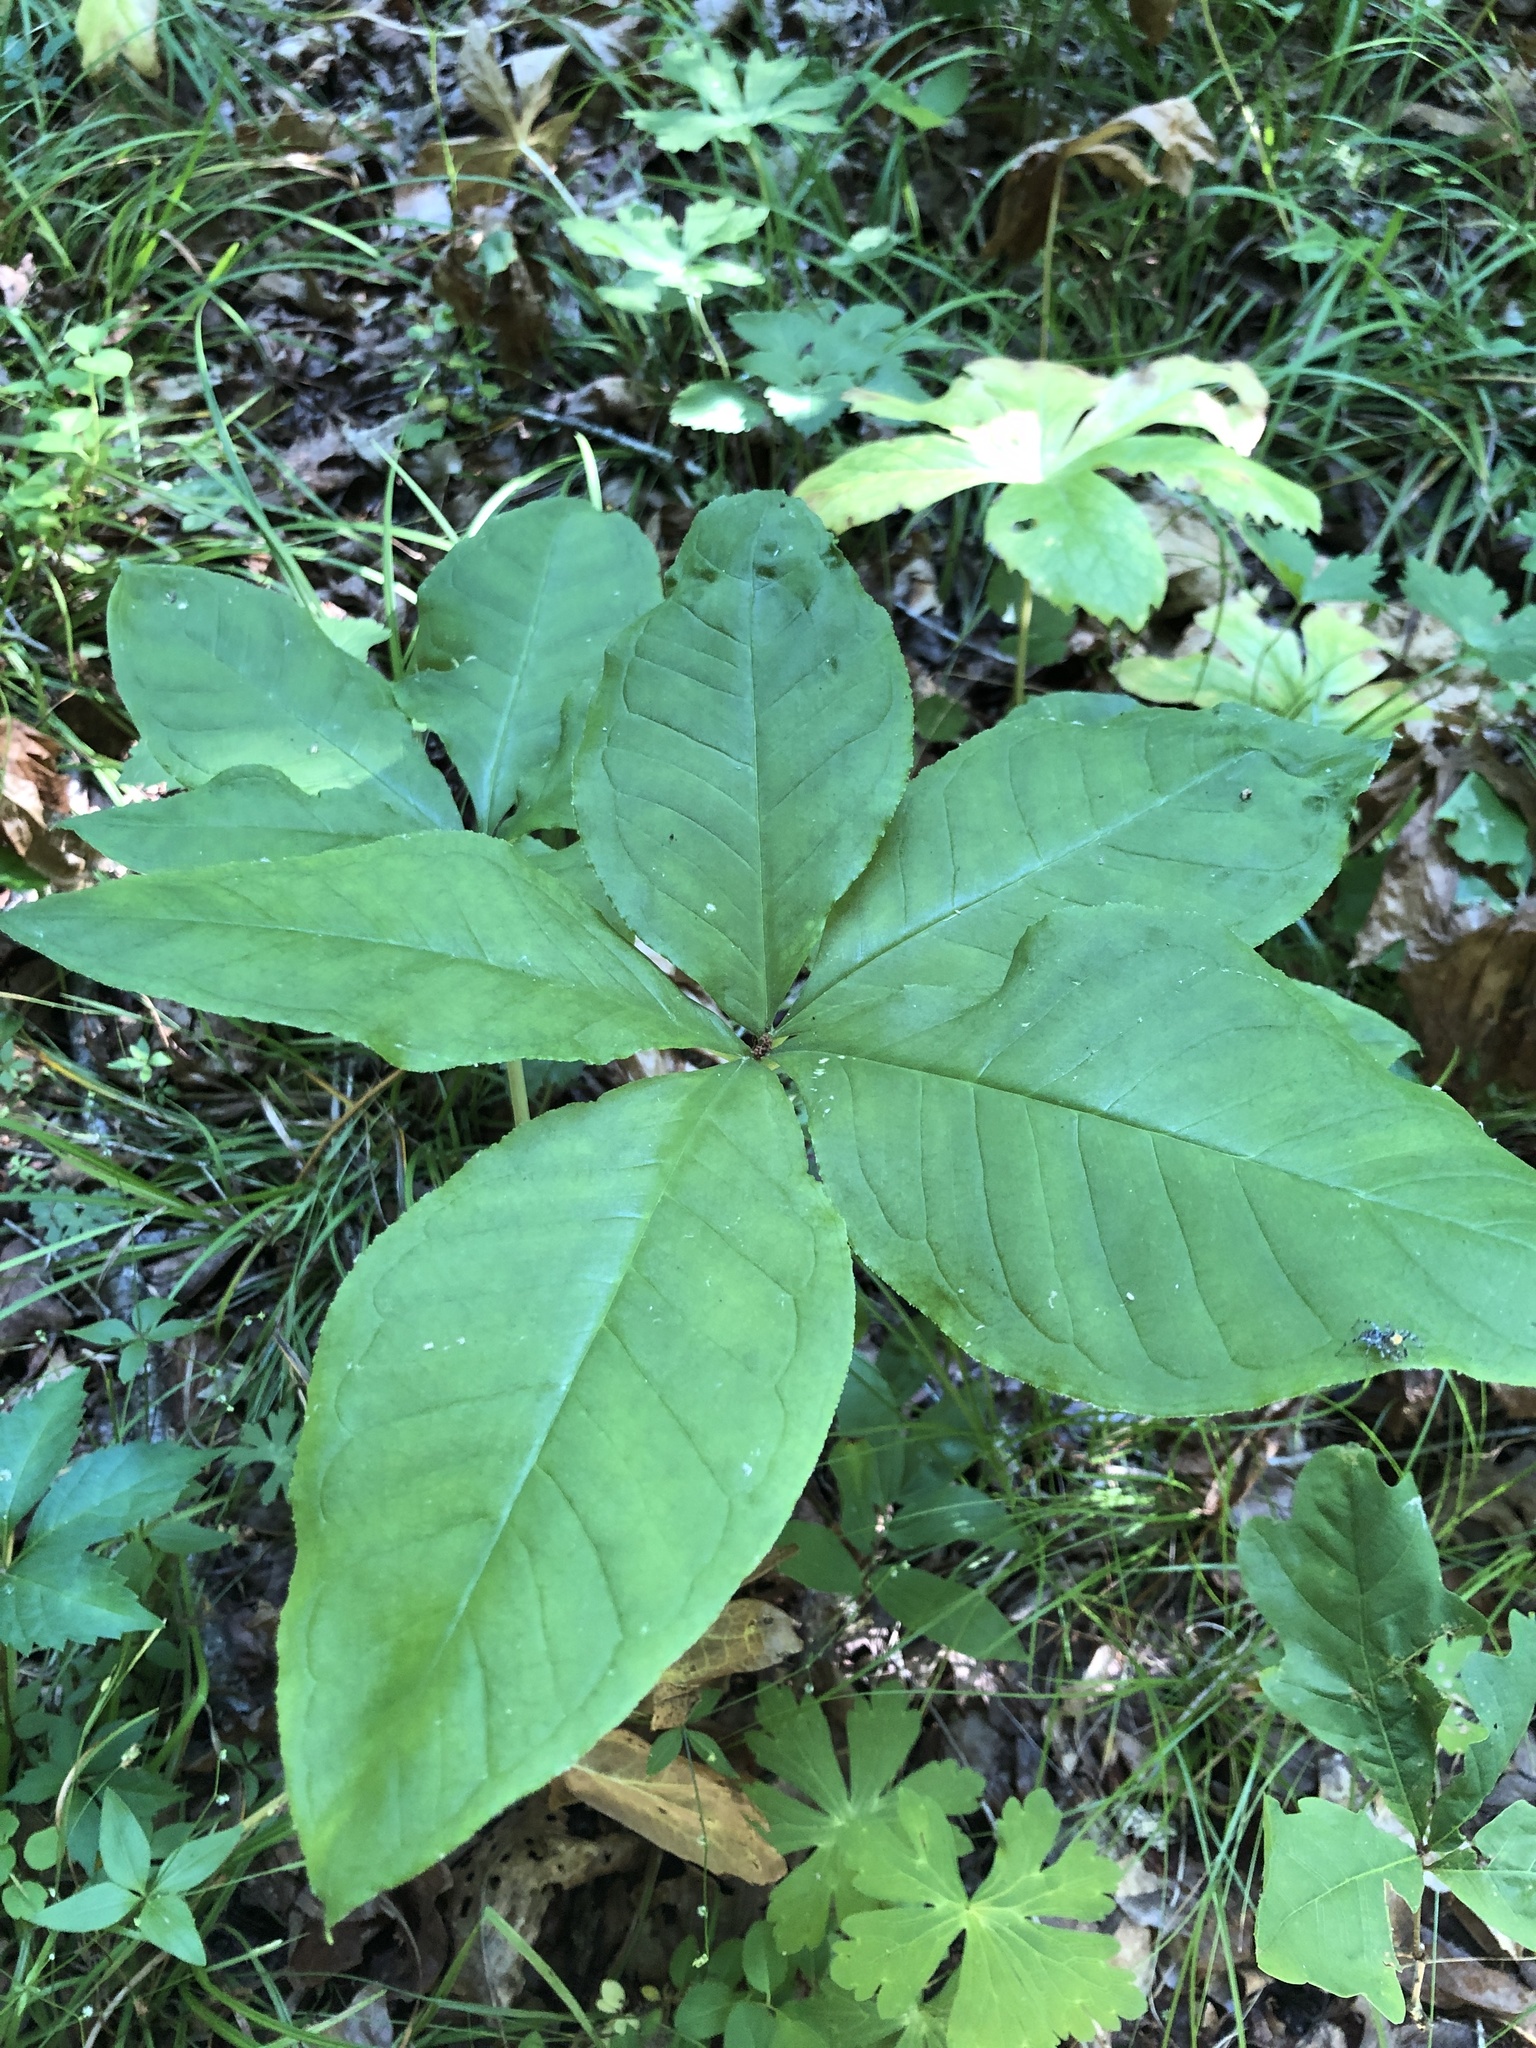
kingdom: Plantae
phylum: Tracheophyta
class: Liliopsida
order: Alismatales
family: Araceae
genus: Arisaema
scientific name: Arisaema quinatum
